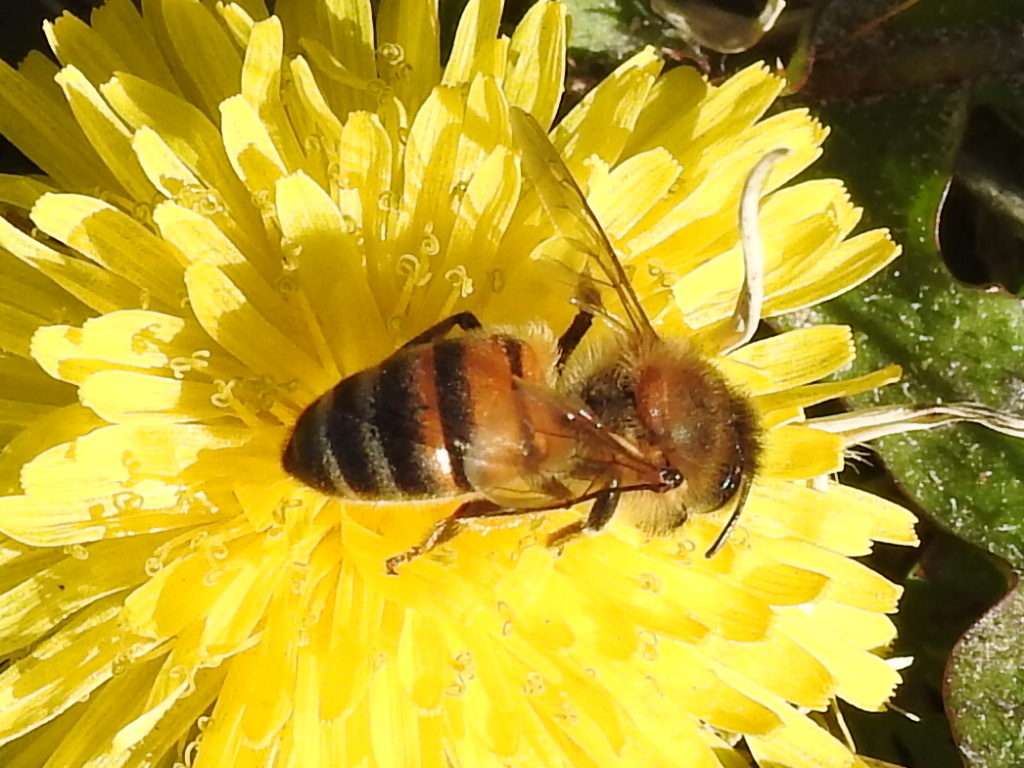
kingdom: Animalia
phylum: Arthropoda
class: Insecta
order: Hymenoptera
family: Apidae
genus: Apis
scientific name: Apis mellifera
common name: Honey bee
